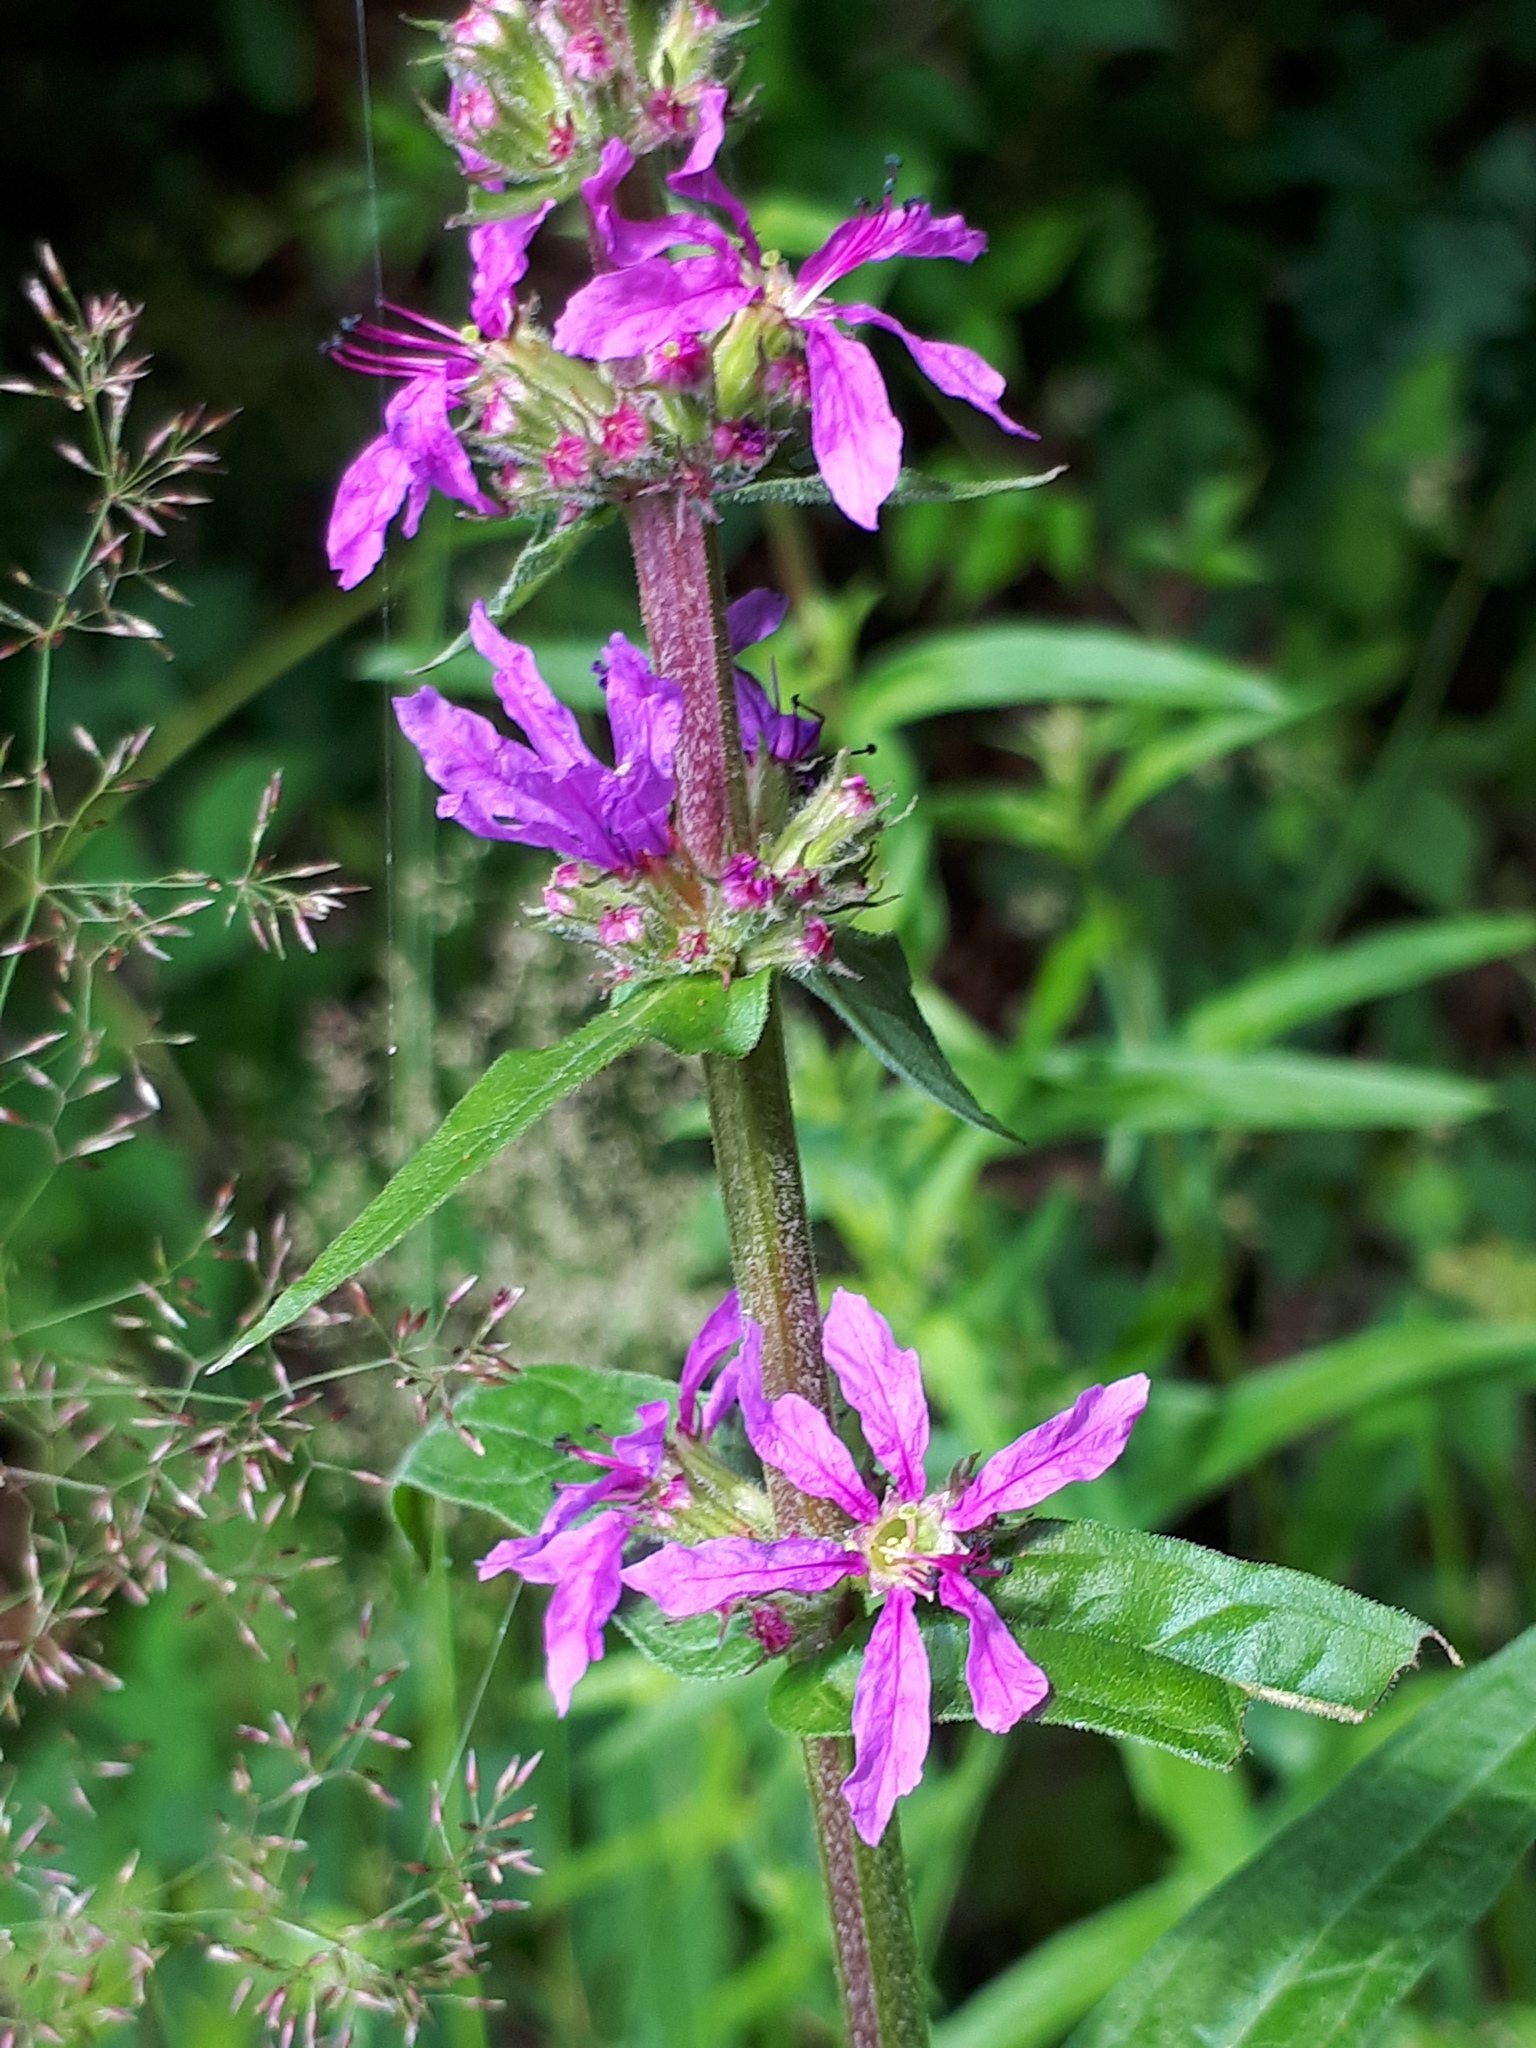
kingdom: Plantae
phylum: Tracheophyta
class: Magnoliopsida
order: Myrtales
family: Lythraceae
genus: Lythrum
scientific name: Lythrum salicaria
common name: Purple loosestrife
